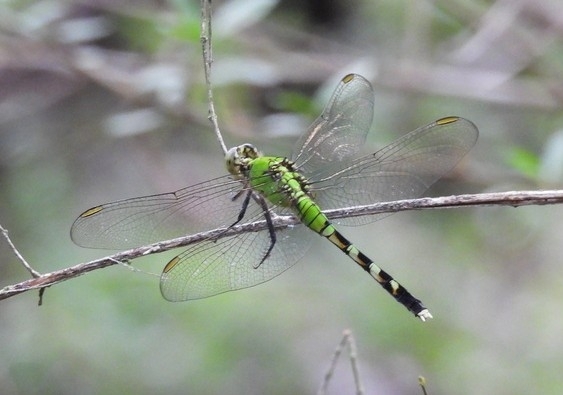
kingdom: Animalia
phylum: Arthropoda
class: Insecta
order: Odonata
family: Libellulidae
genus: Erythemis
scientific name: Erythemis simplicicollis
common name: Eastern pondhawk
